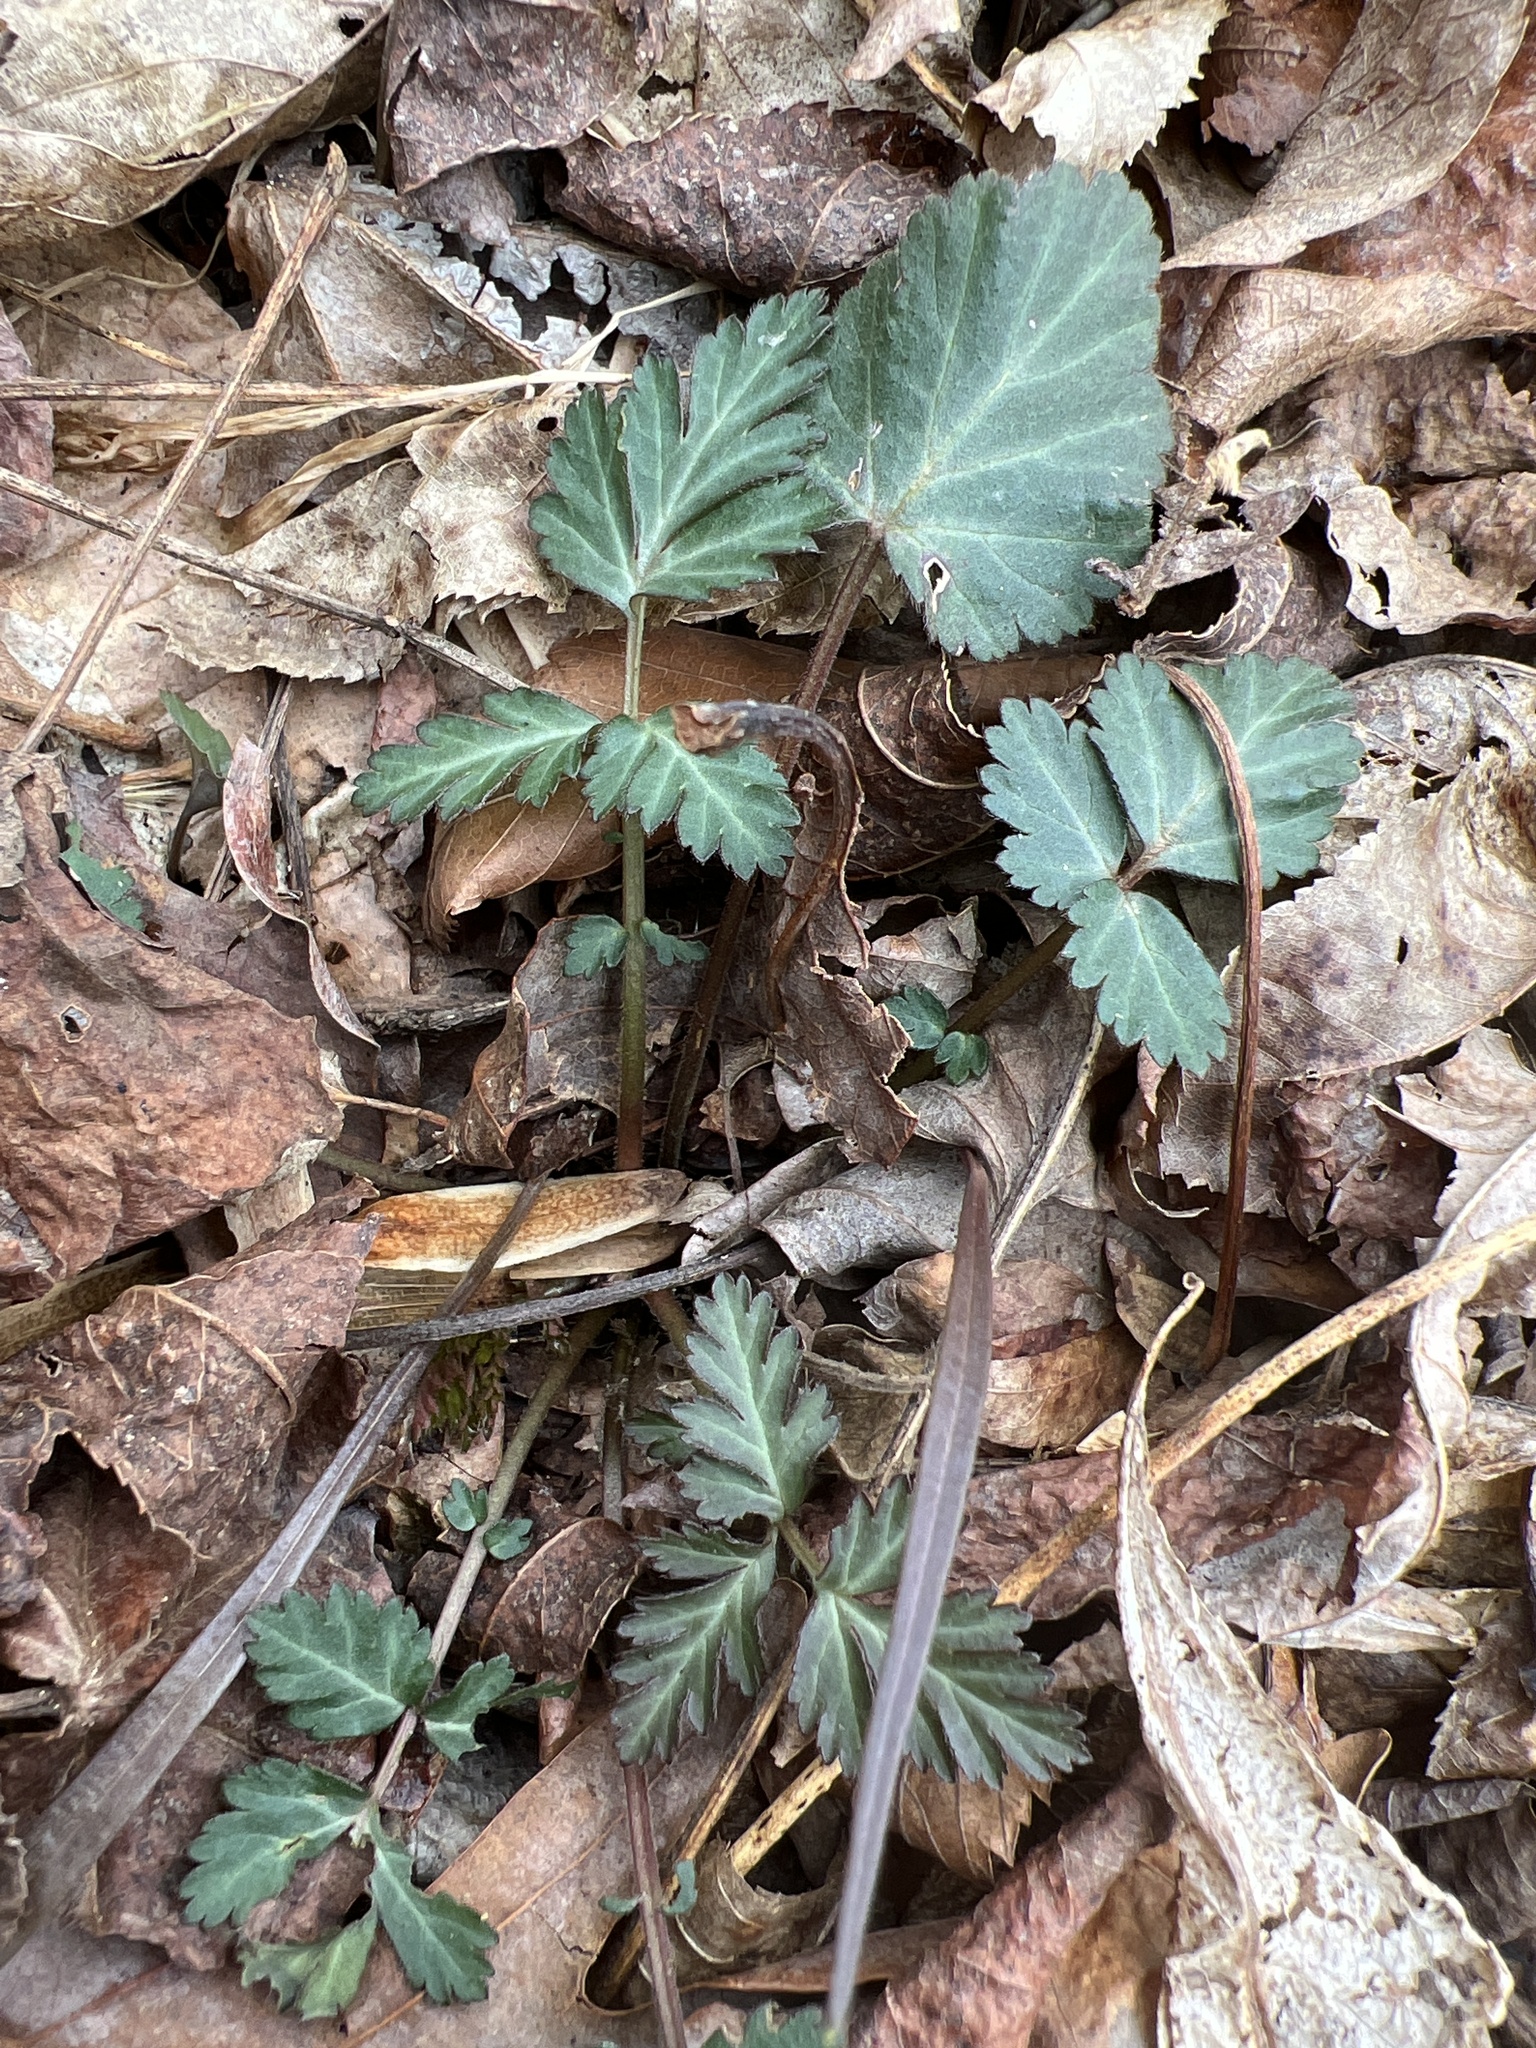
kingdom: Plantae
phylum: Tracheophyta
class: Magnoliopsida
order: Rosales
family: Rosaceae
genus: Geum
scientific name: Geum canadense
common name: White avens
